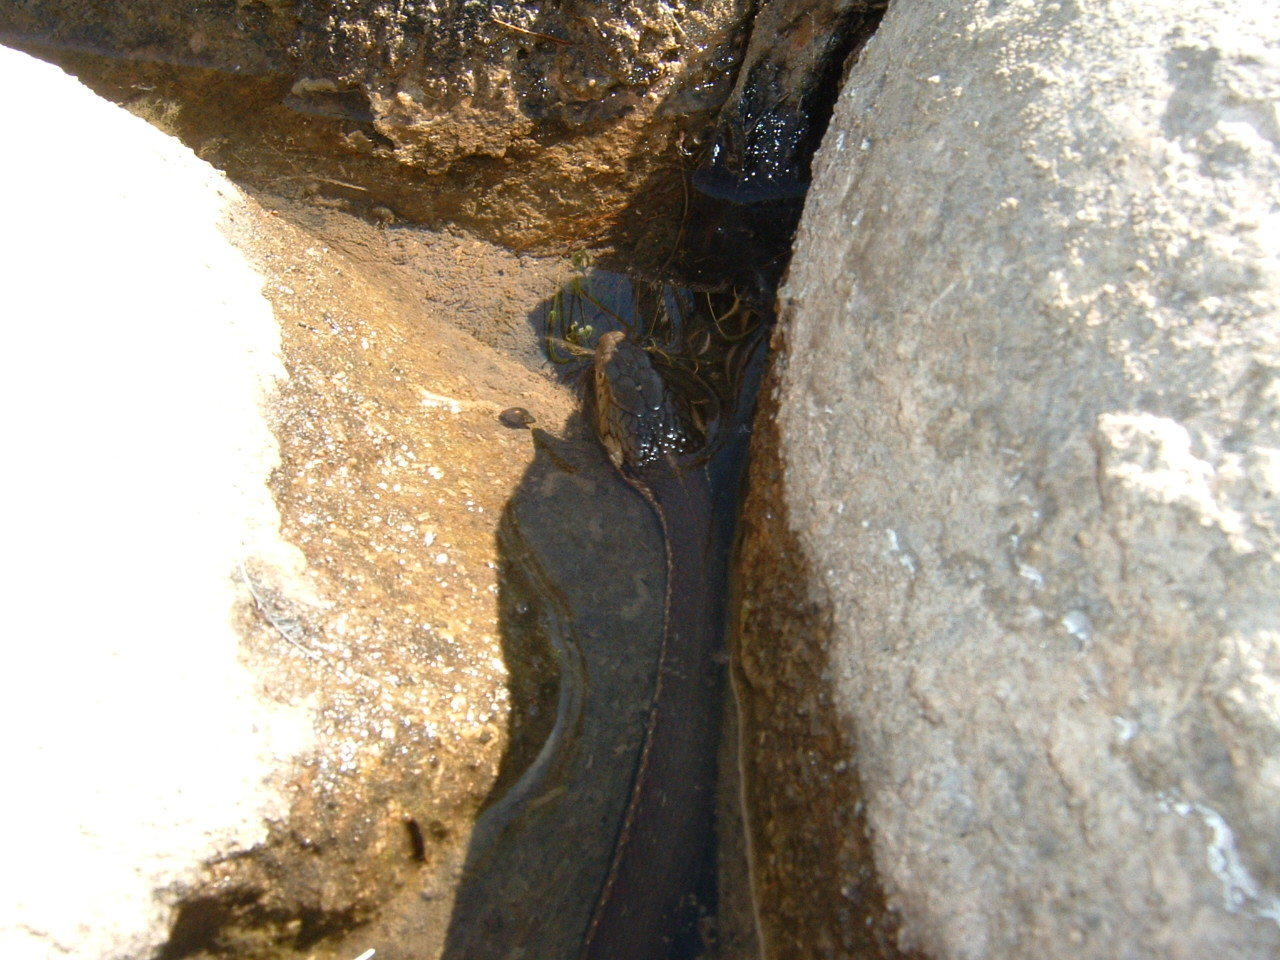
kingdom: Animalia
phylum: Chordata
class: Squamata
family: Colubridae
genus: Thamnophis
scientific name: Thamnophis hammondii
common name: Two-striped garter snake
